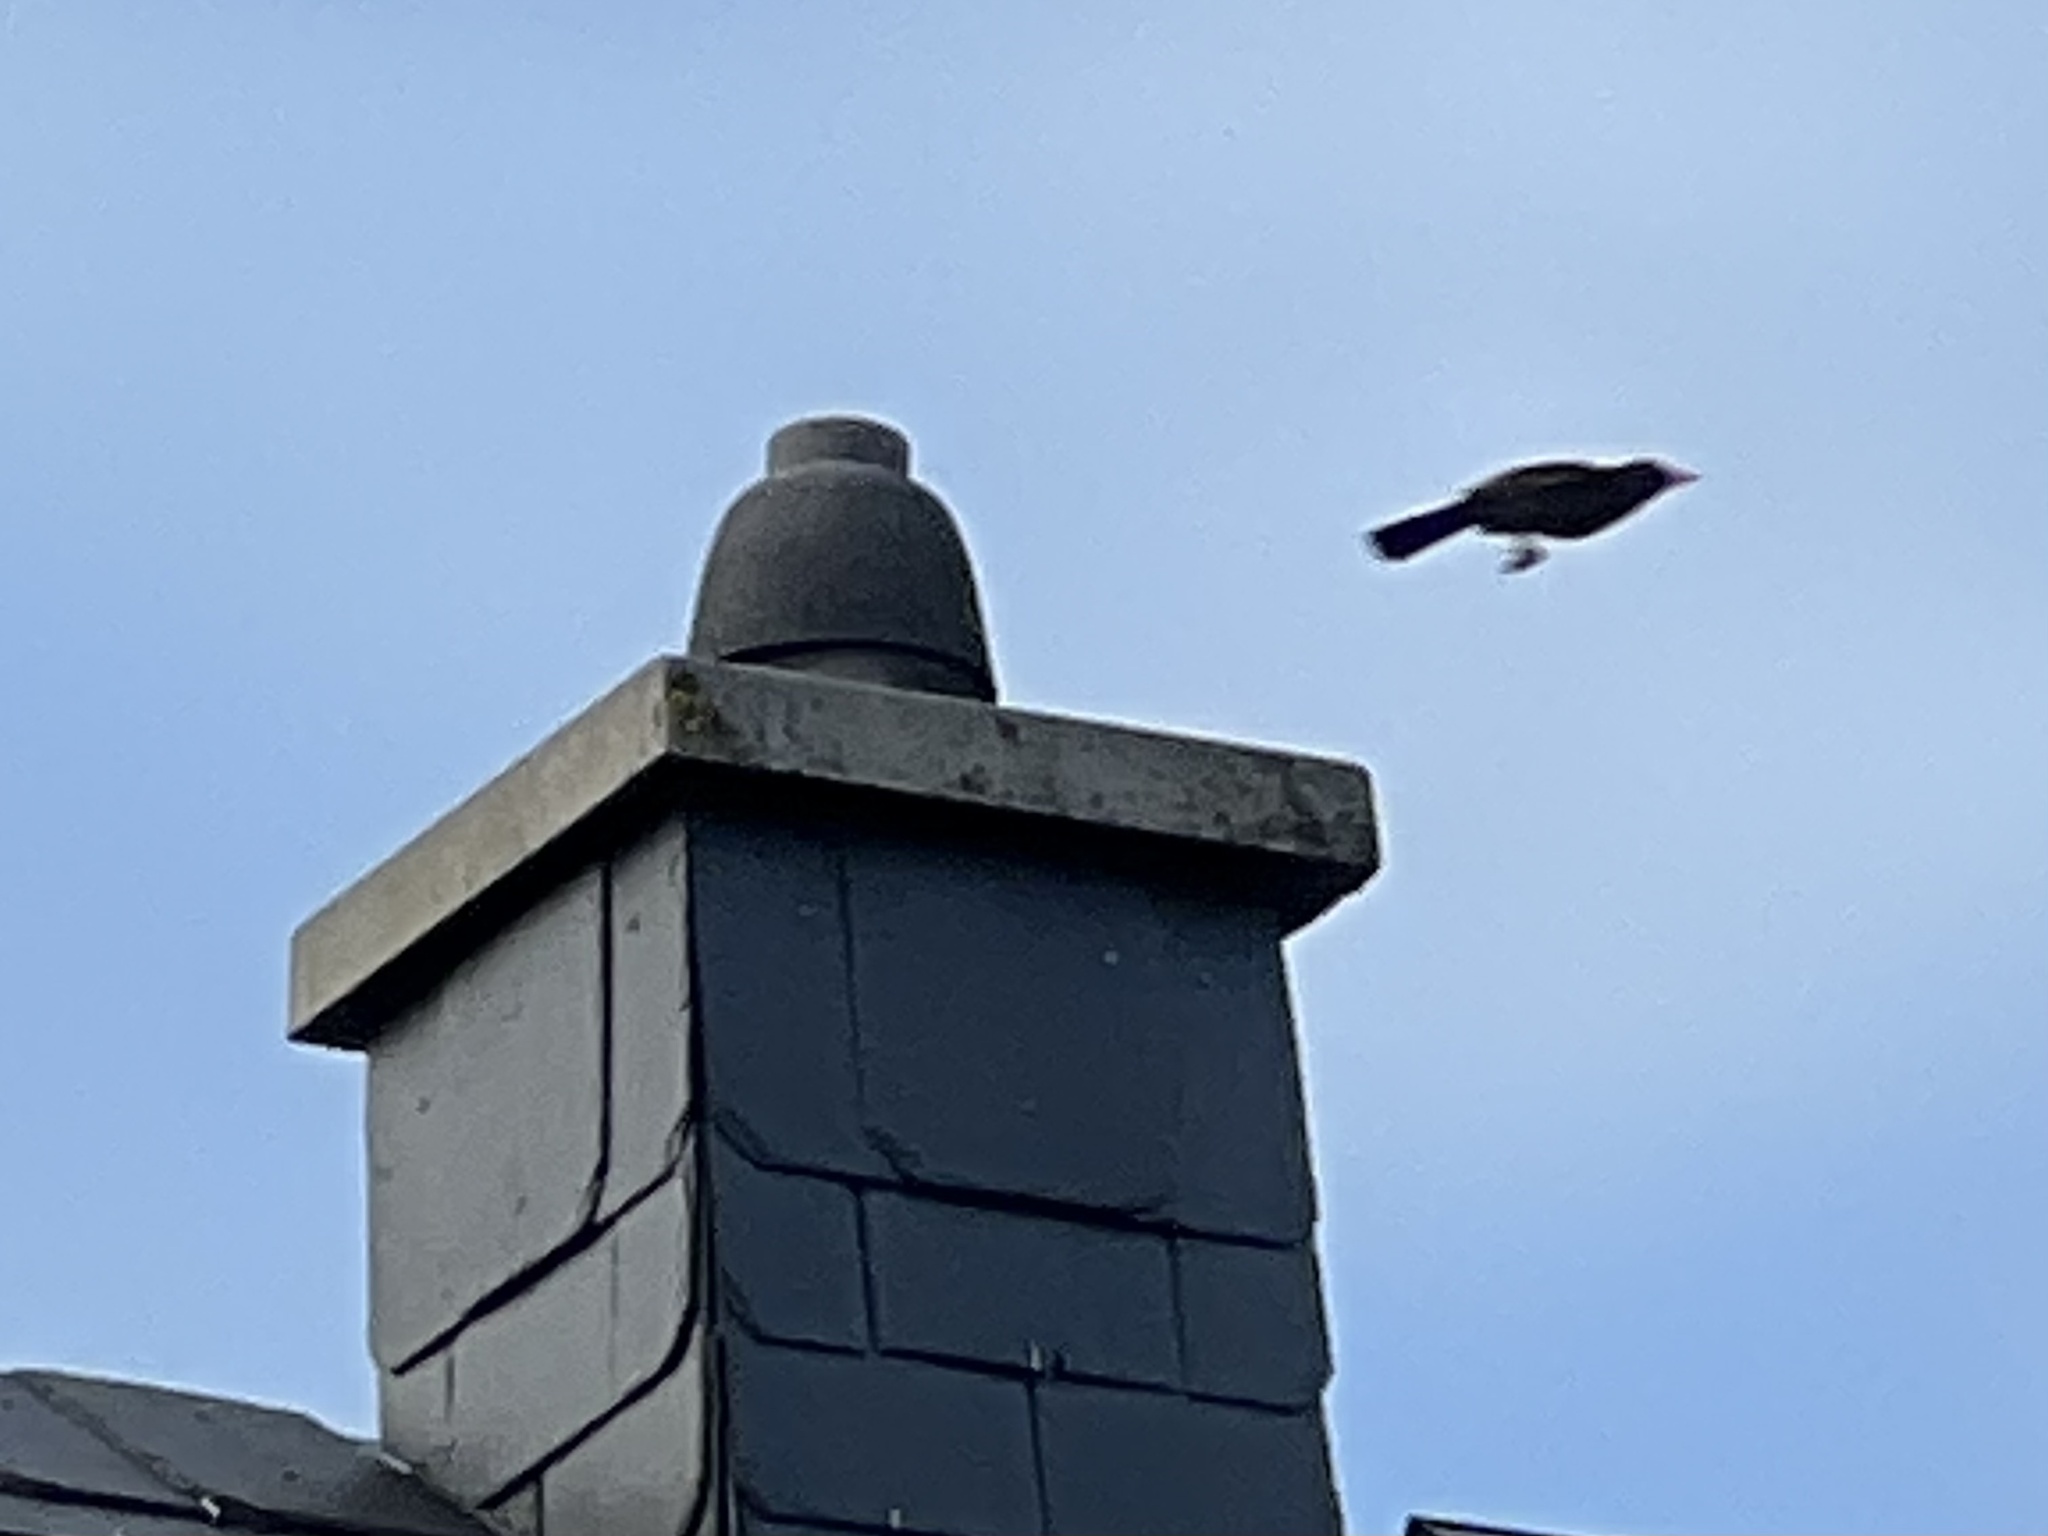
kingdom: Animalia
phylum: Chordata
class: Aves
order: Passeriformes
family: Turdidae
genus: Turdus
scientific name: Turdus merula
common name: Common blackbird
